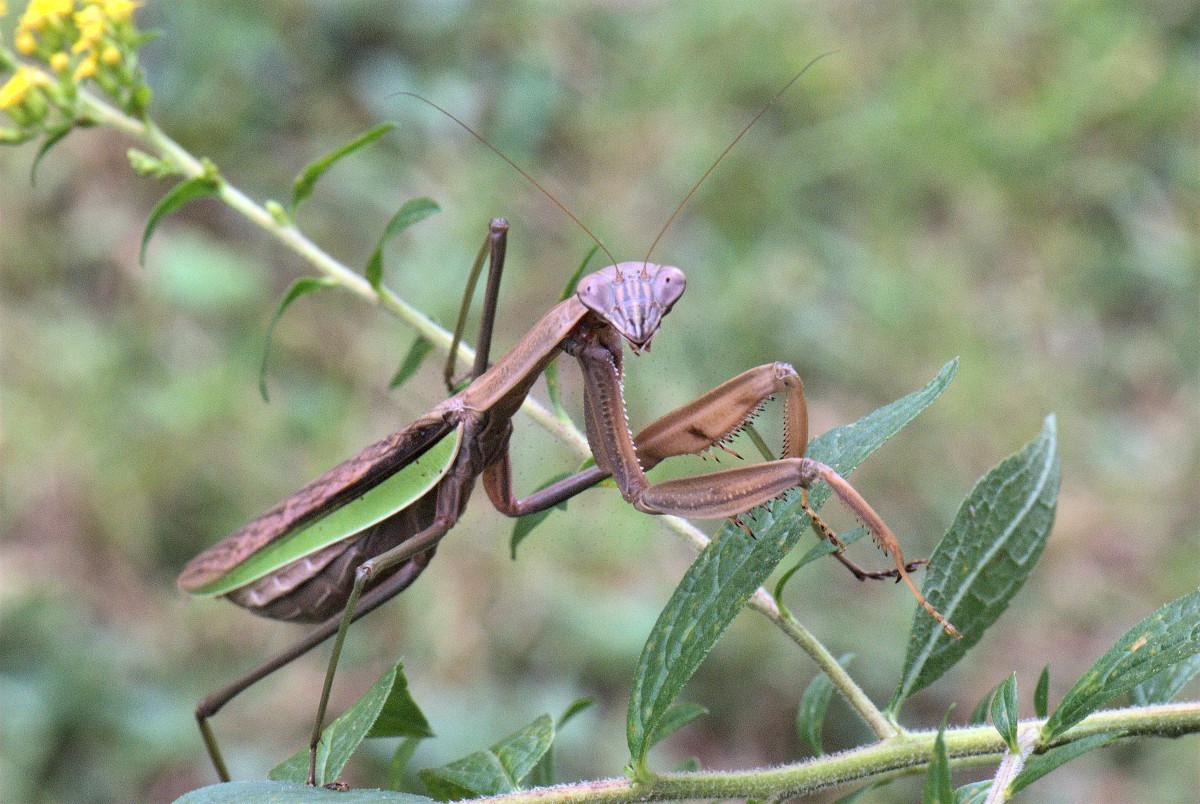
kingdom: Animalia
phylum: Arthropoda
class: Insecta
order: Mantodea
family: Mantidae
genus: Tenodera
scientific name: Tenodera sinensis
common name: Chinese mantis
